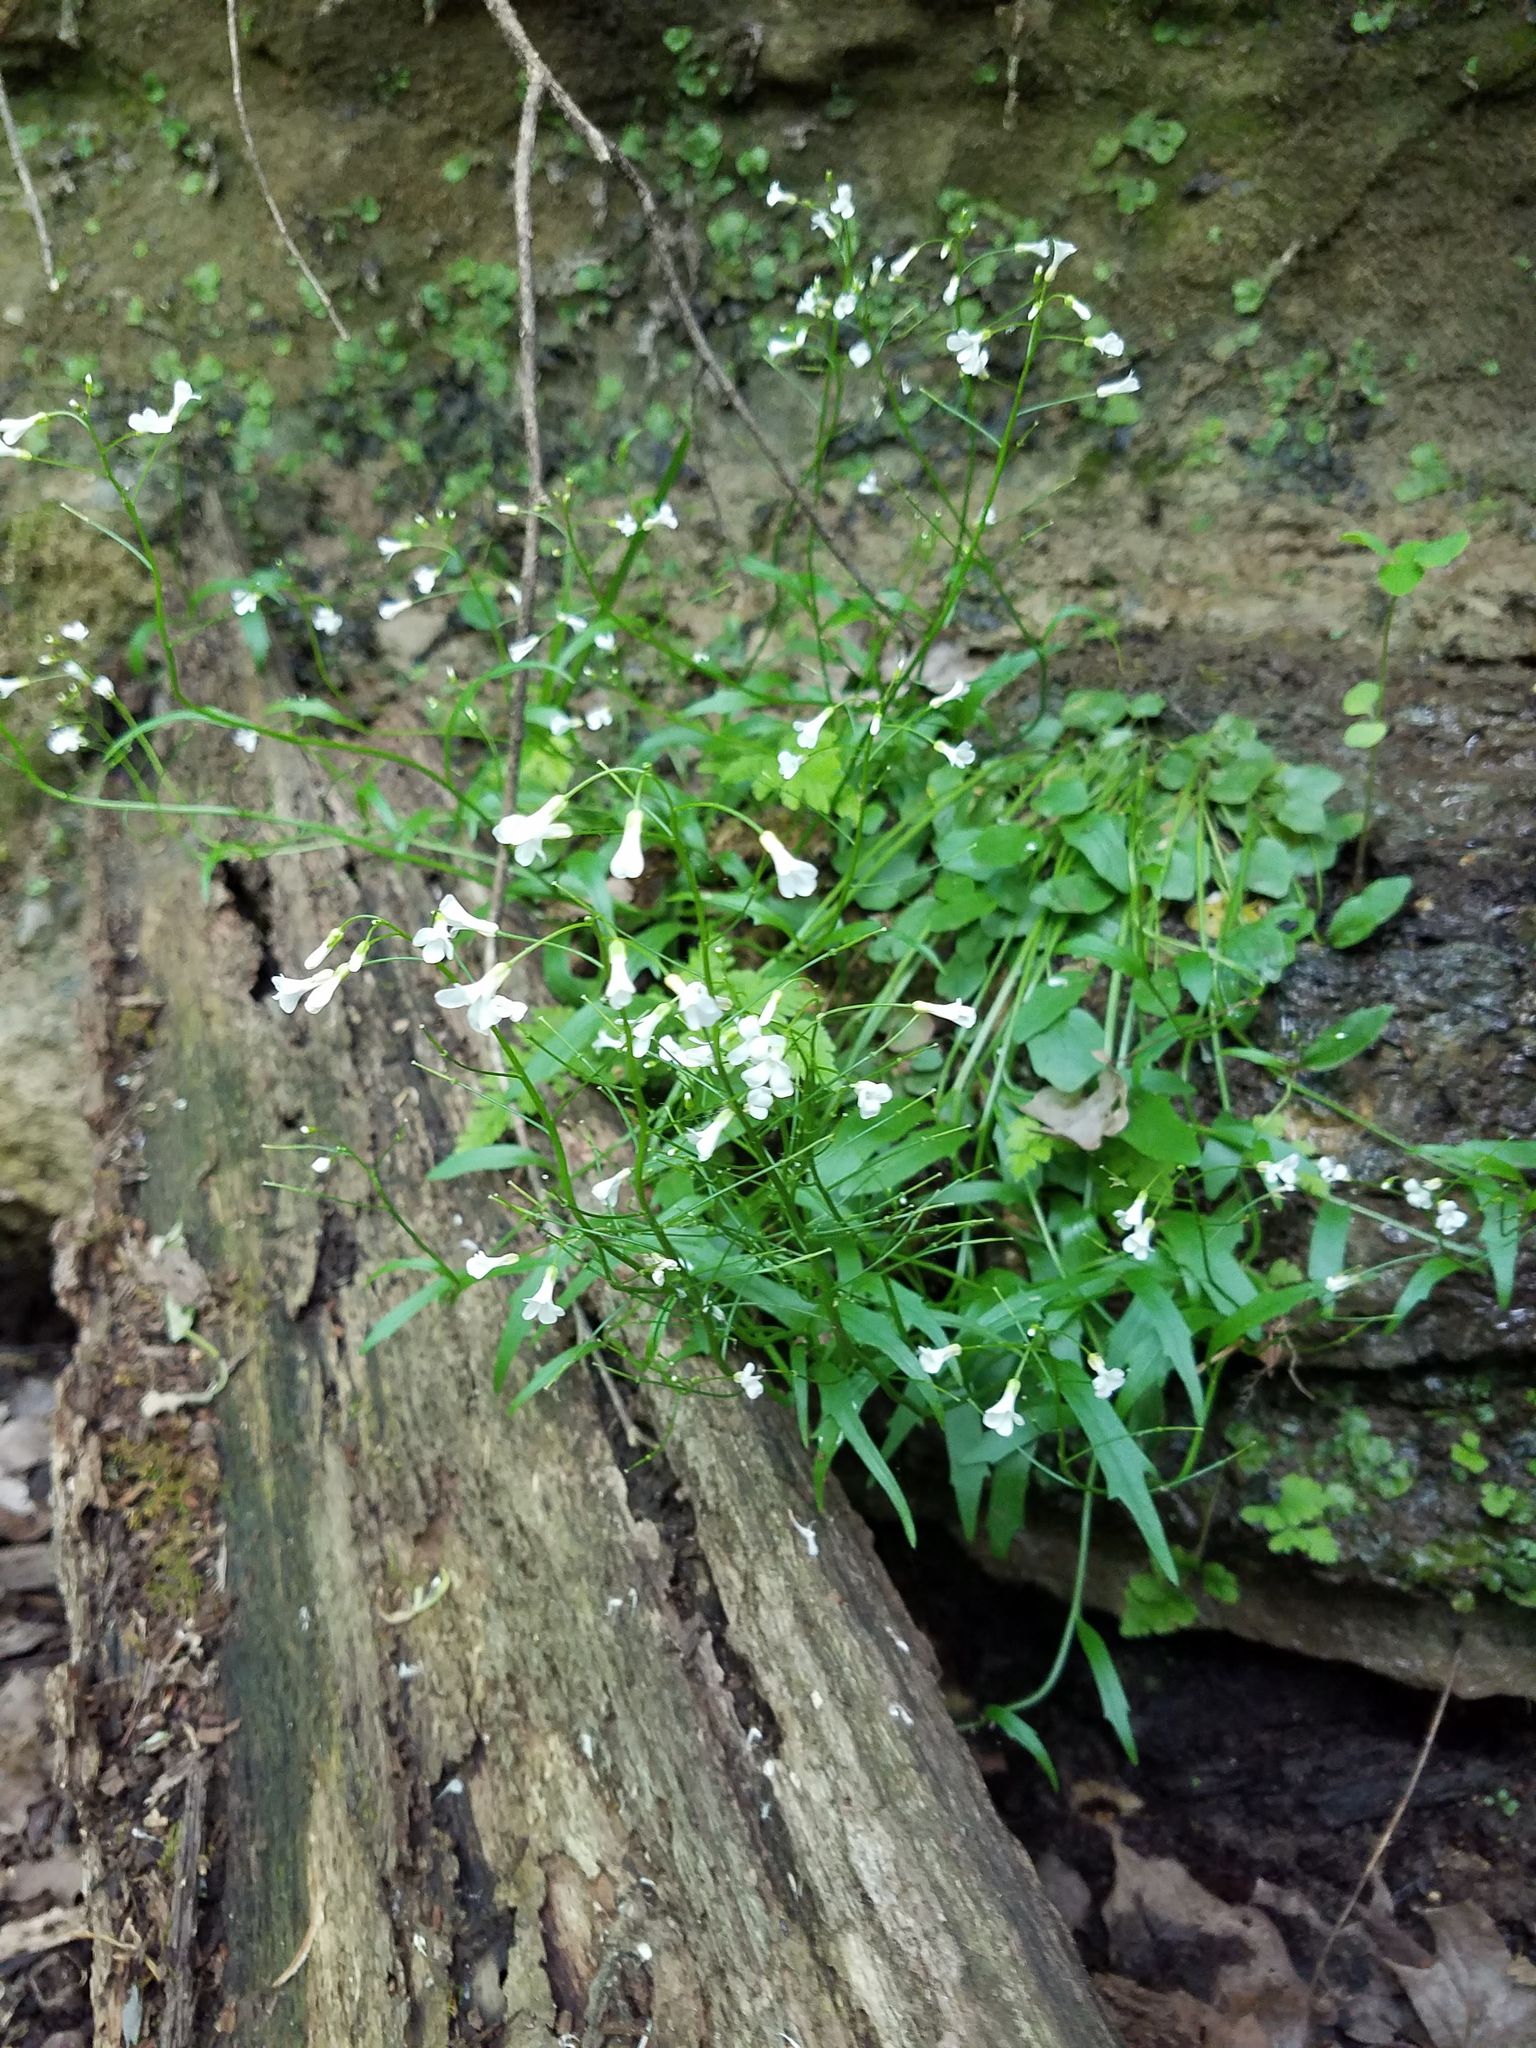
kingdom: Plantae
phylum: Tracheophyta
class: Magnoliopsida
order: Brassicales
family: Brassicaceae
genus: Cardamine
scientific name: Cardamine bulbosa
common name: Spring cress
